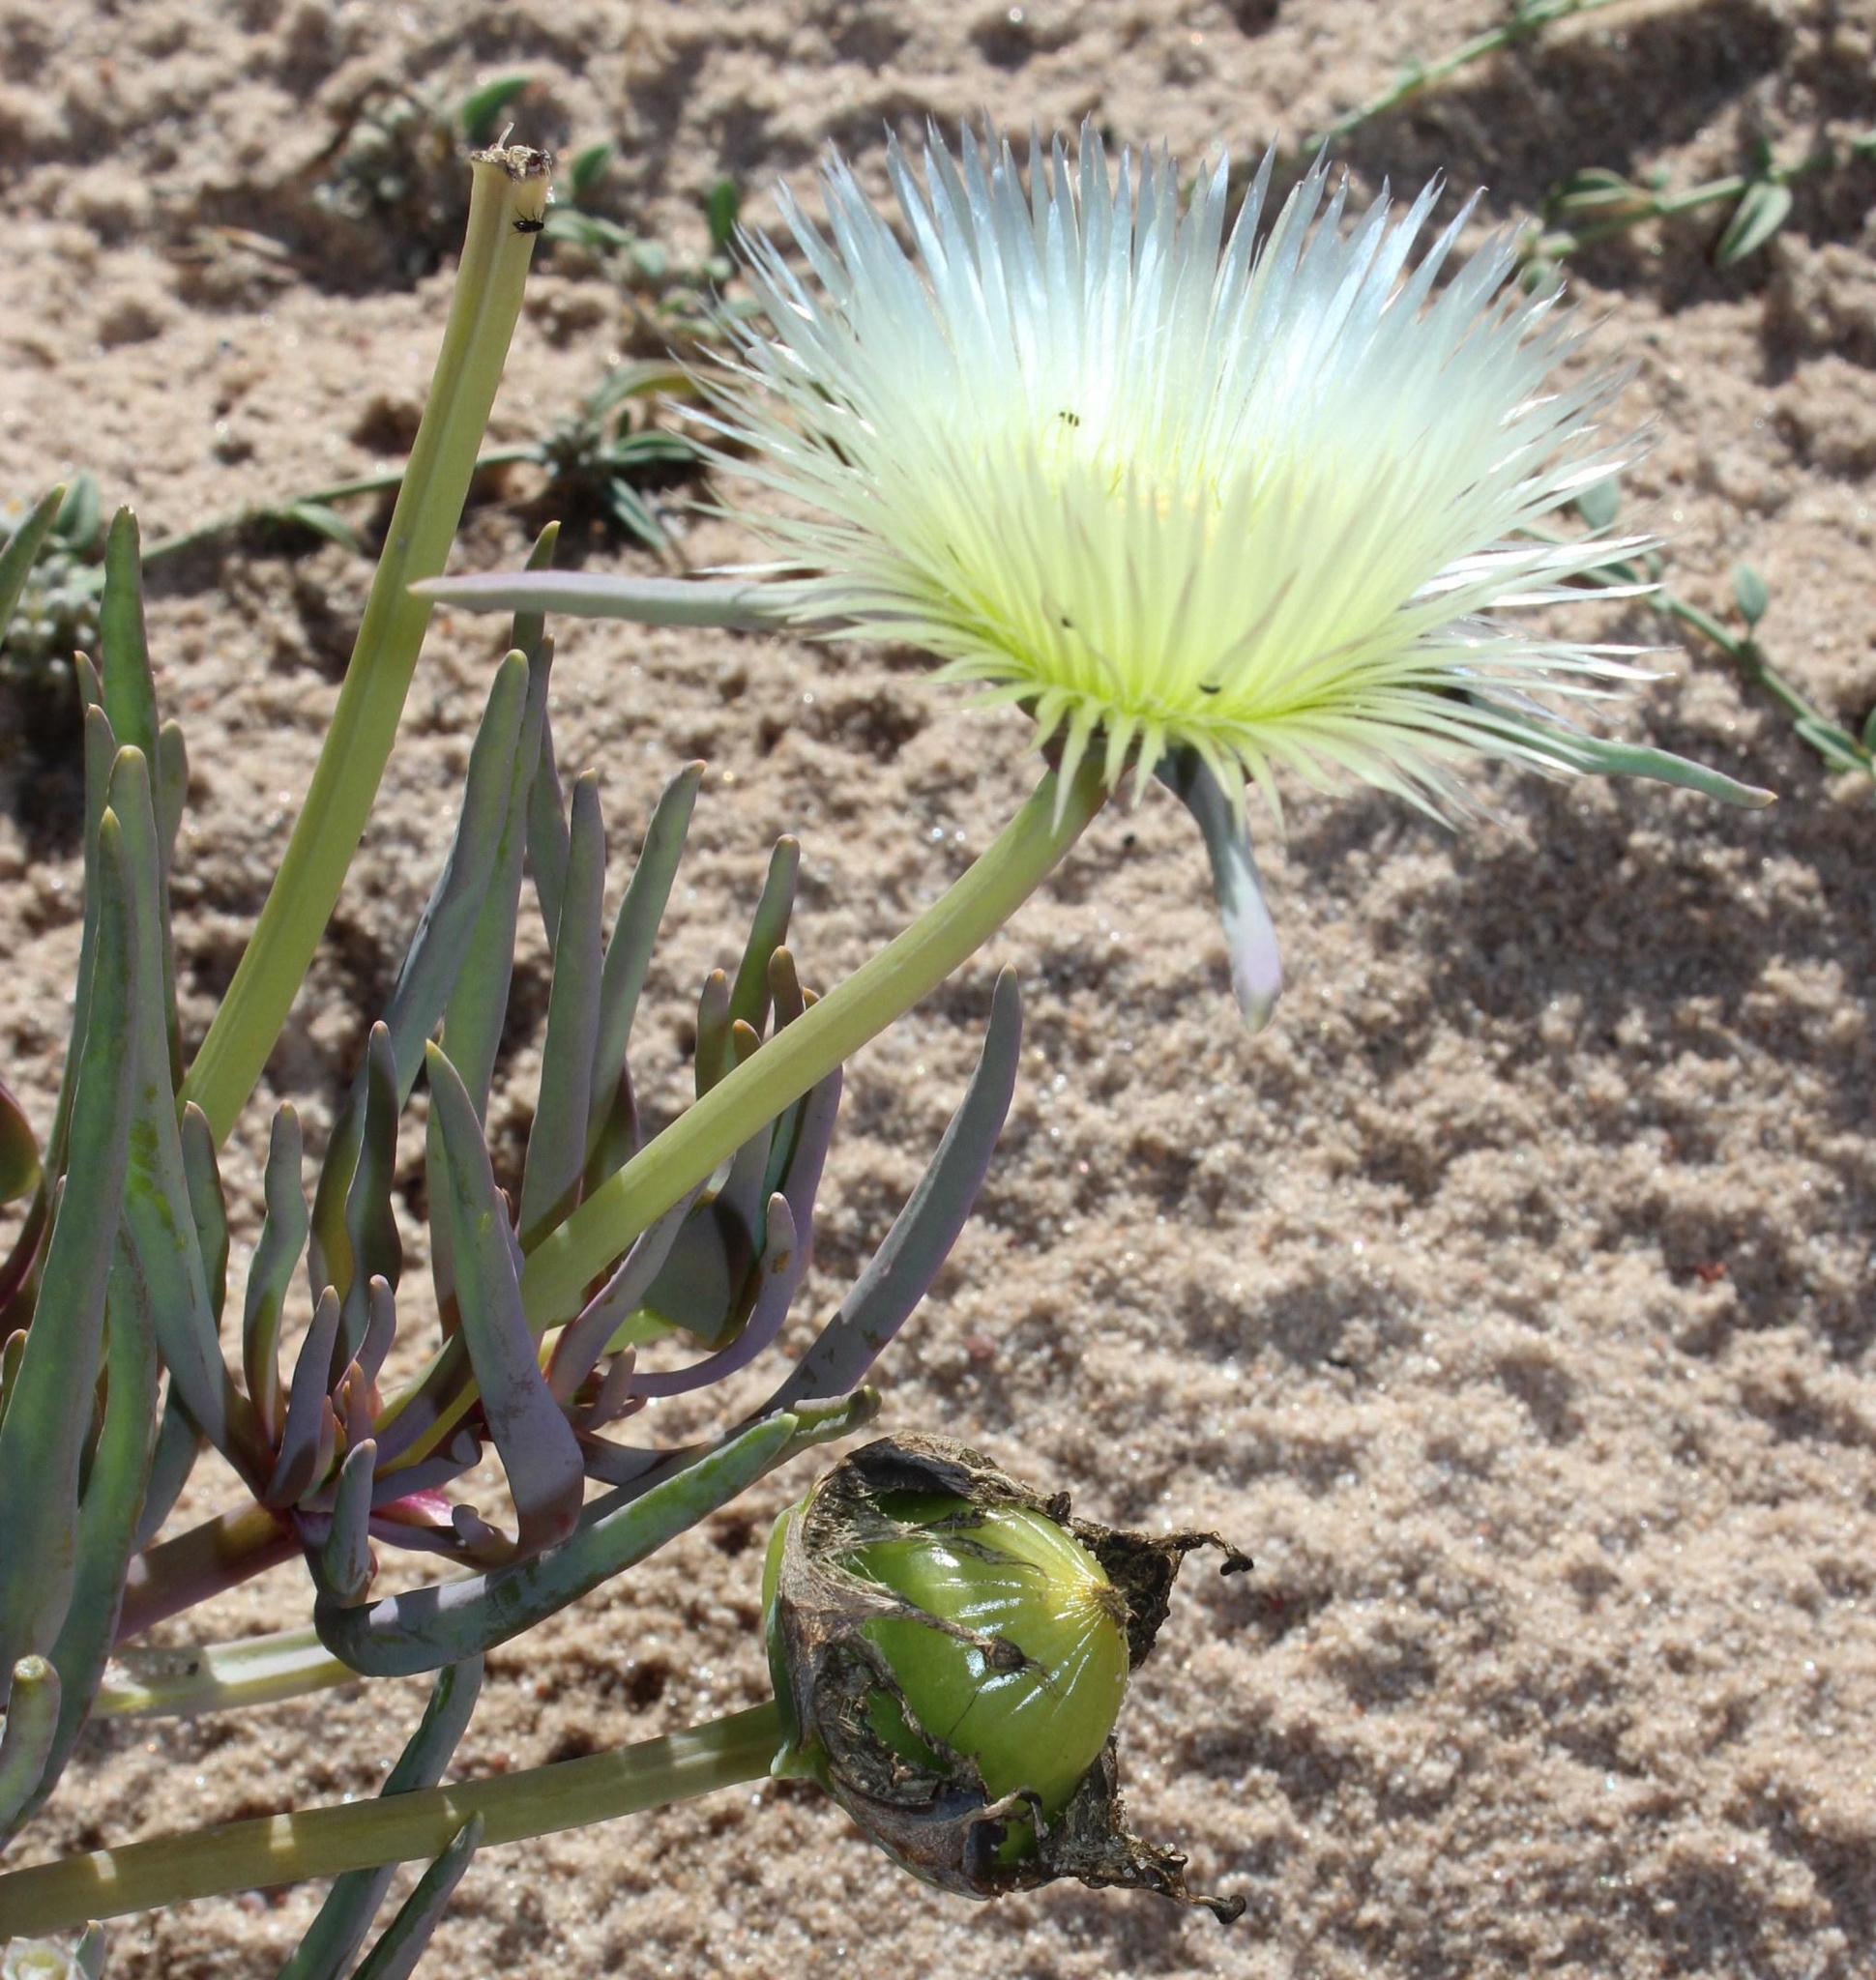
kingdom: Plantae
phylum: Tracheophyta
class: Magnoliopsida
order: Caryophyllales
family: Aizoaceae
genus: Conicosia
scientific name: Conicosia pugioniformis
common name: Narrow-leaved iceplant
